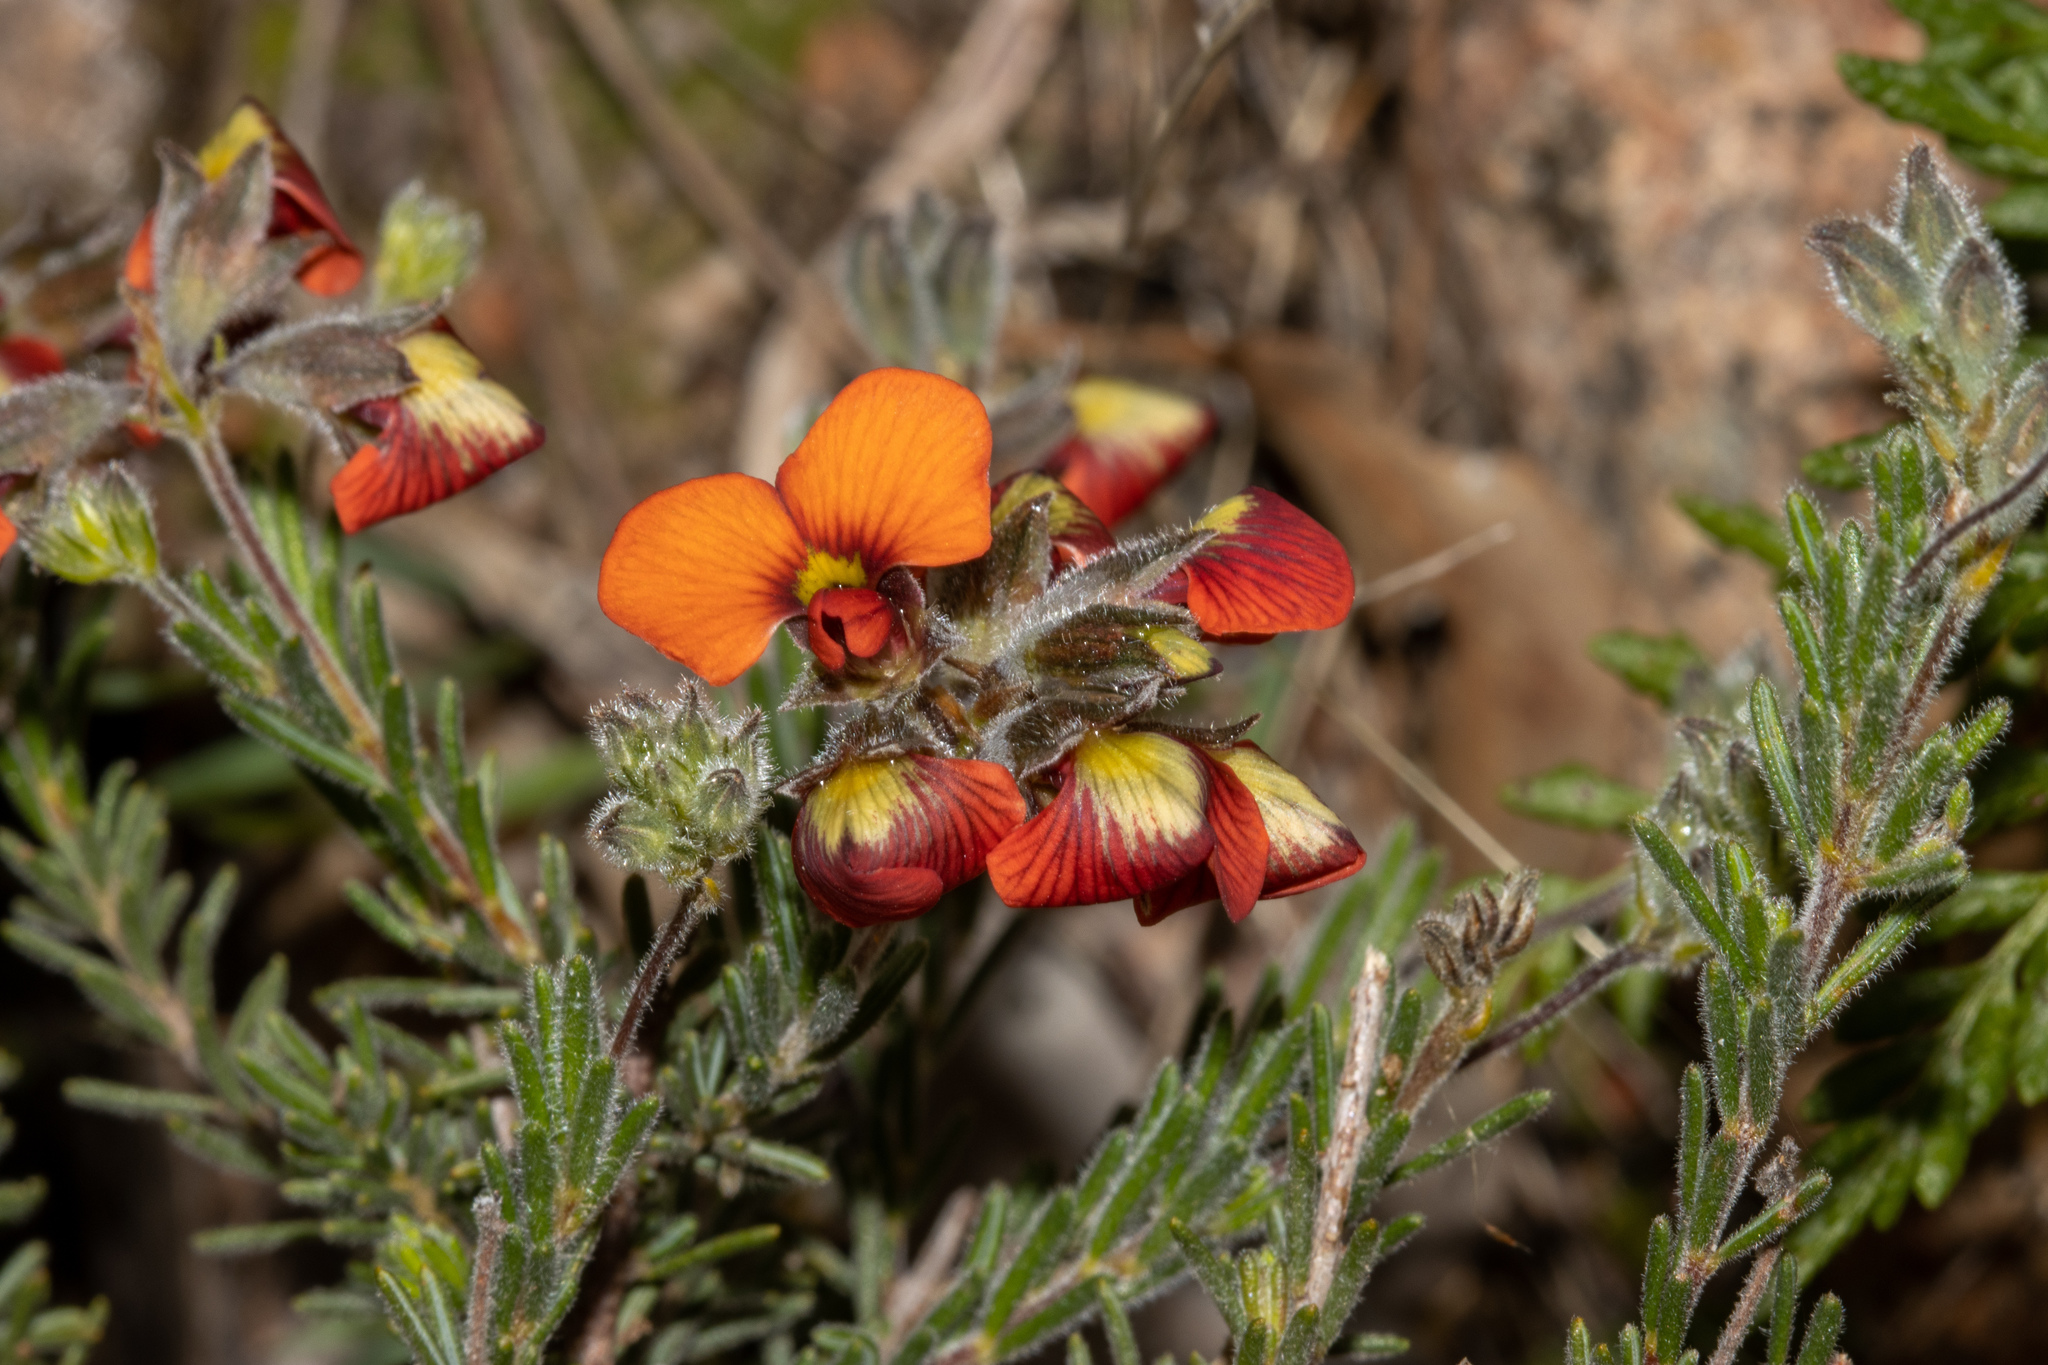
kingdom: Plantae
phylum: Tracheophyta
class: Magnoliopsida
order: Fabales
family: Fabaceae
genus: Dillwynia
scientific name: Dillwynia hispida
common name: Red parrot-pea
